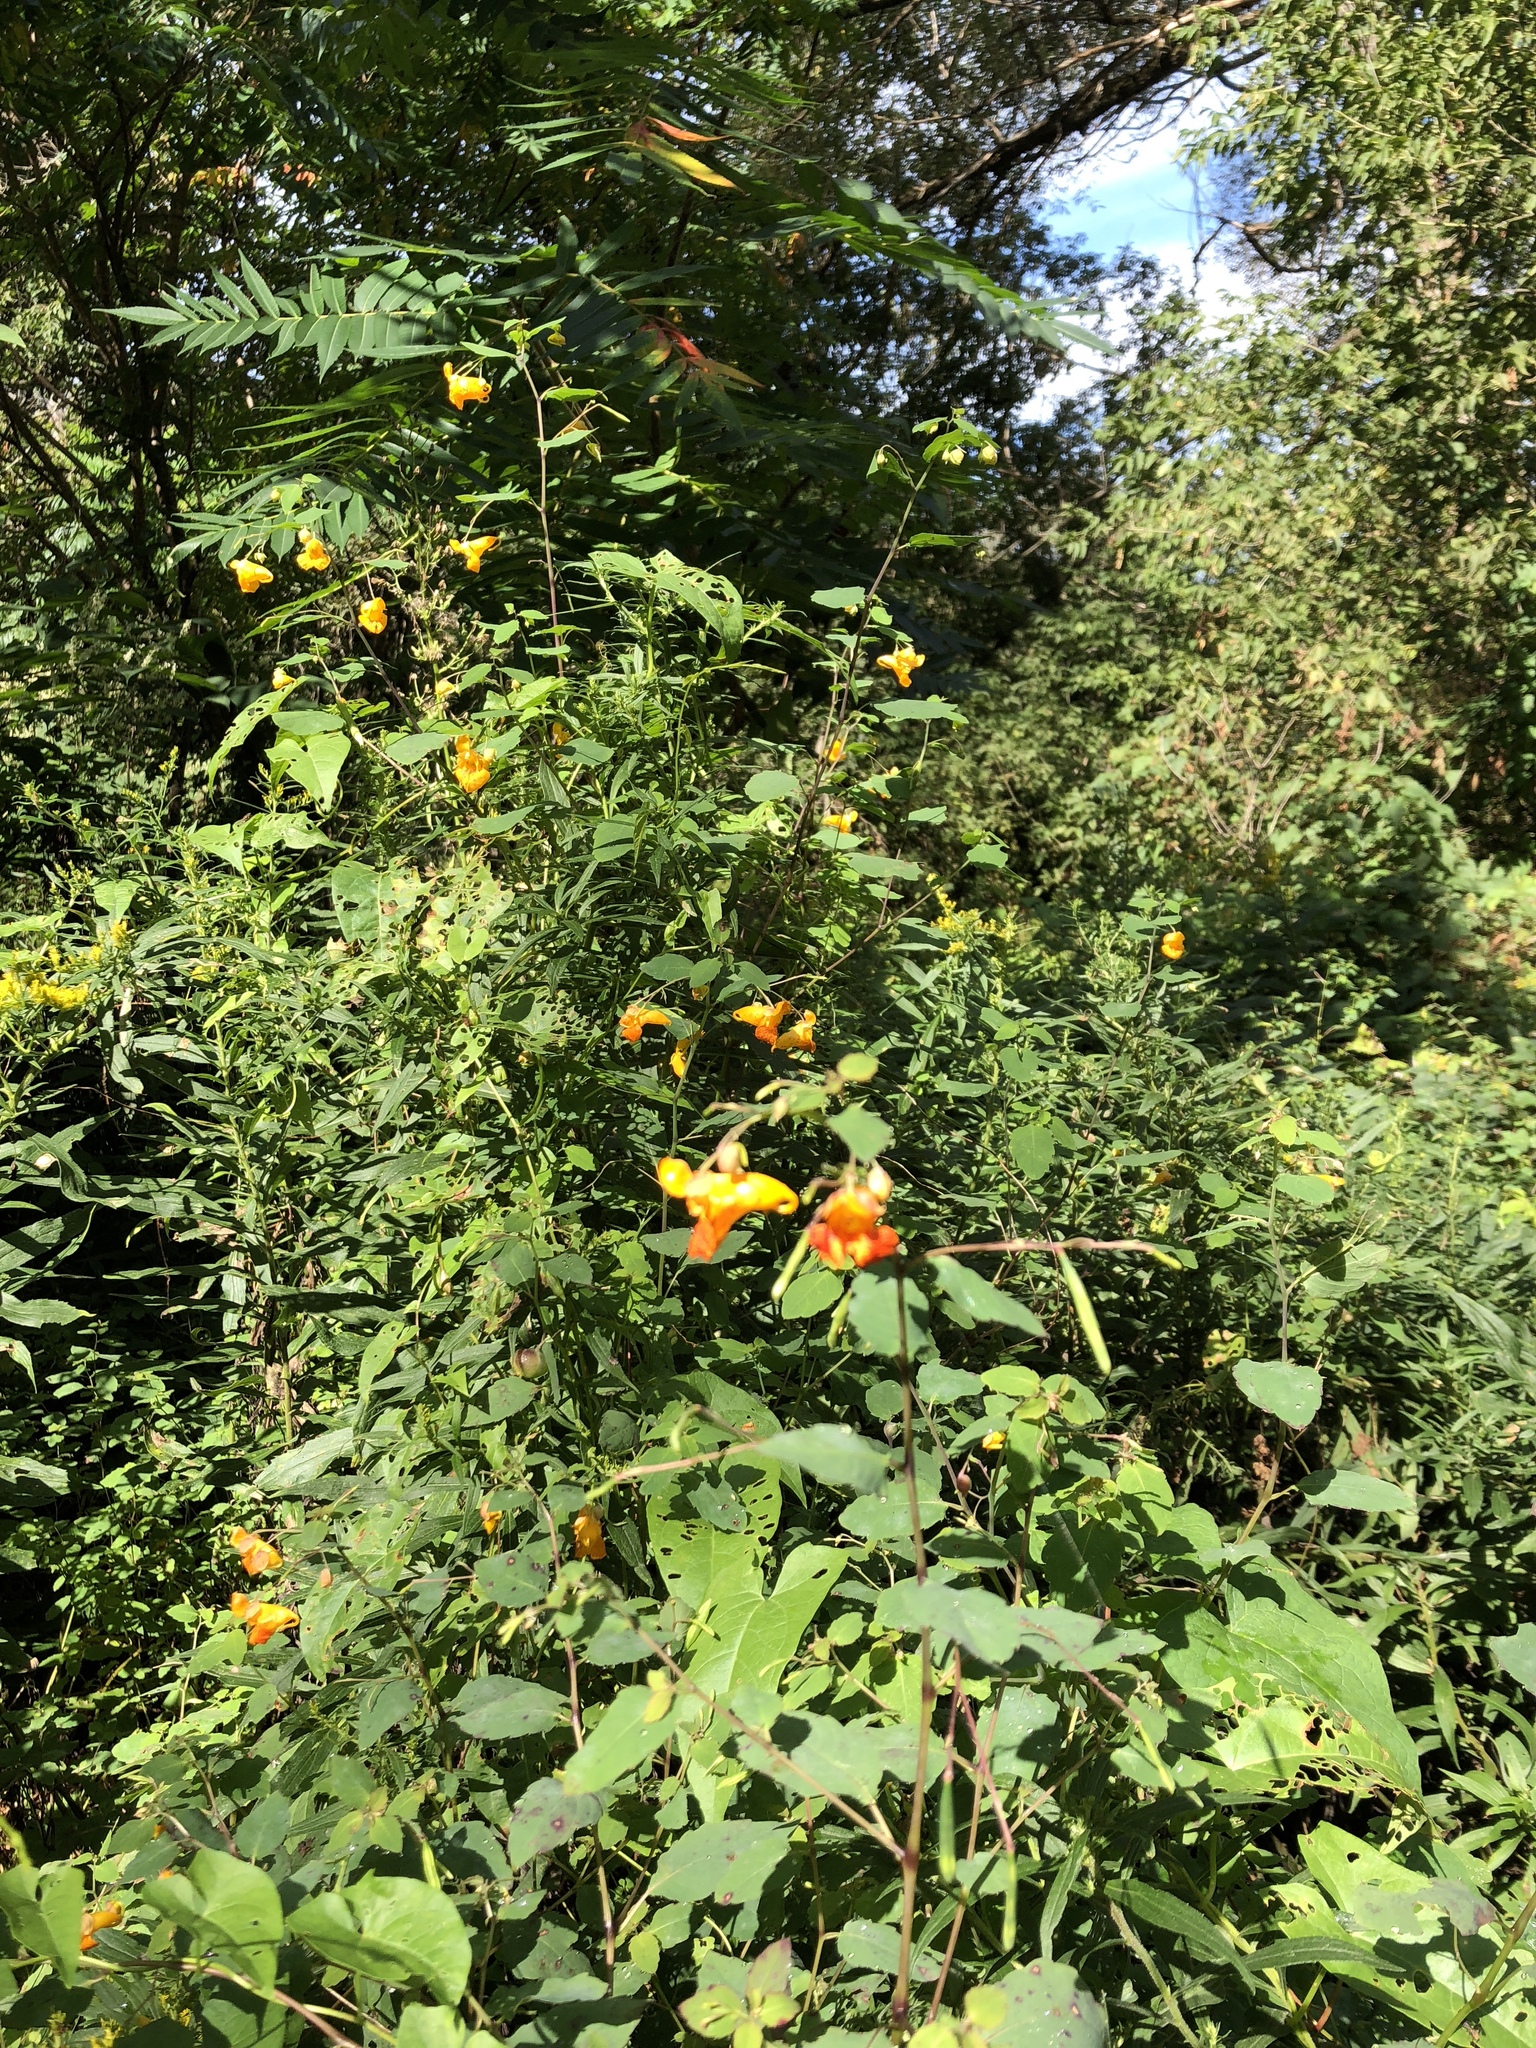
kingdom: Plantae
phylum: Tracheophyta
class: Magnoliopsida
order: Ericales
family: Balsaminaceae
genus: Impatiens
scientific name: Impatiens capensis
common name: Orange balsam
